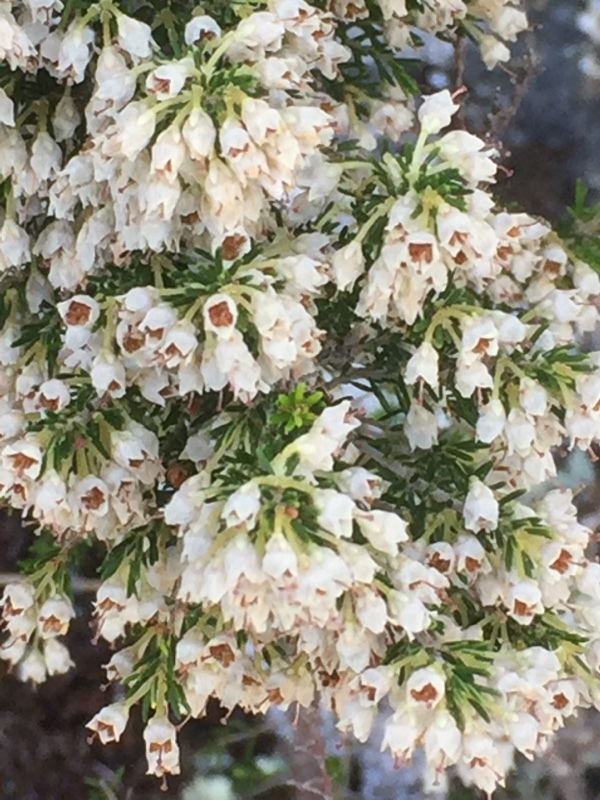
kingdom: Plantae
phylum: Tracheophyta
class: Magnoliopsida
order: Ericales
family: Ericaceae
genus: Erica
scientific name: Erica arborea
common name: Tree heath
